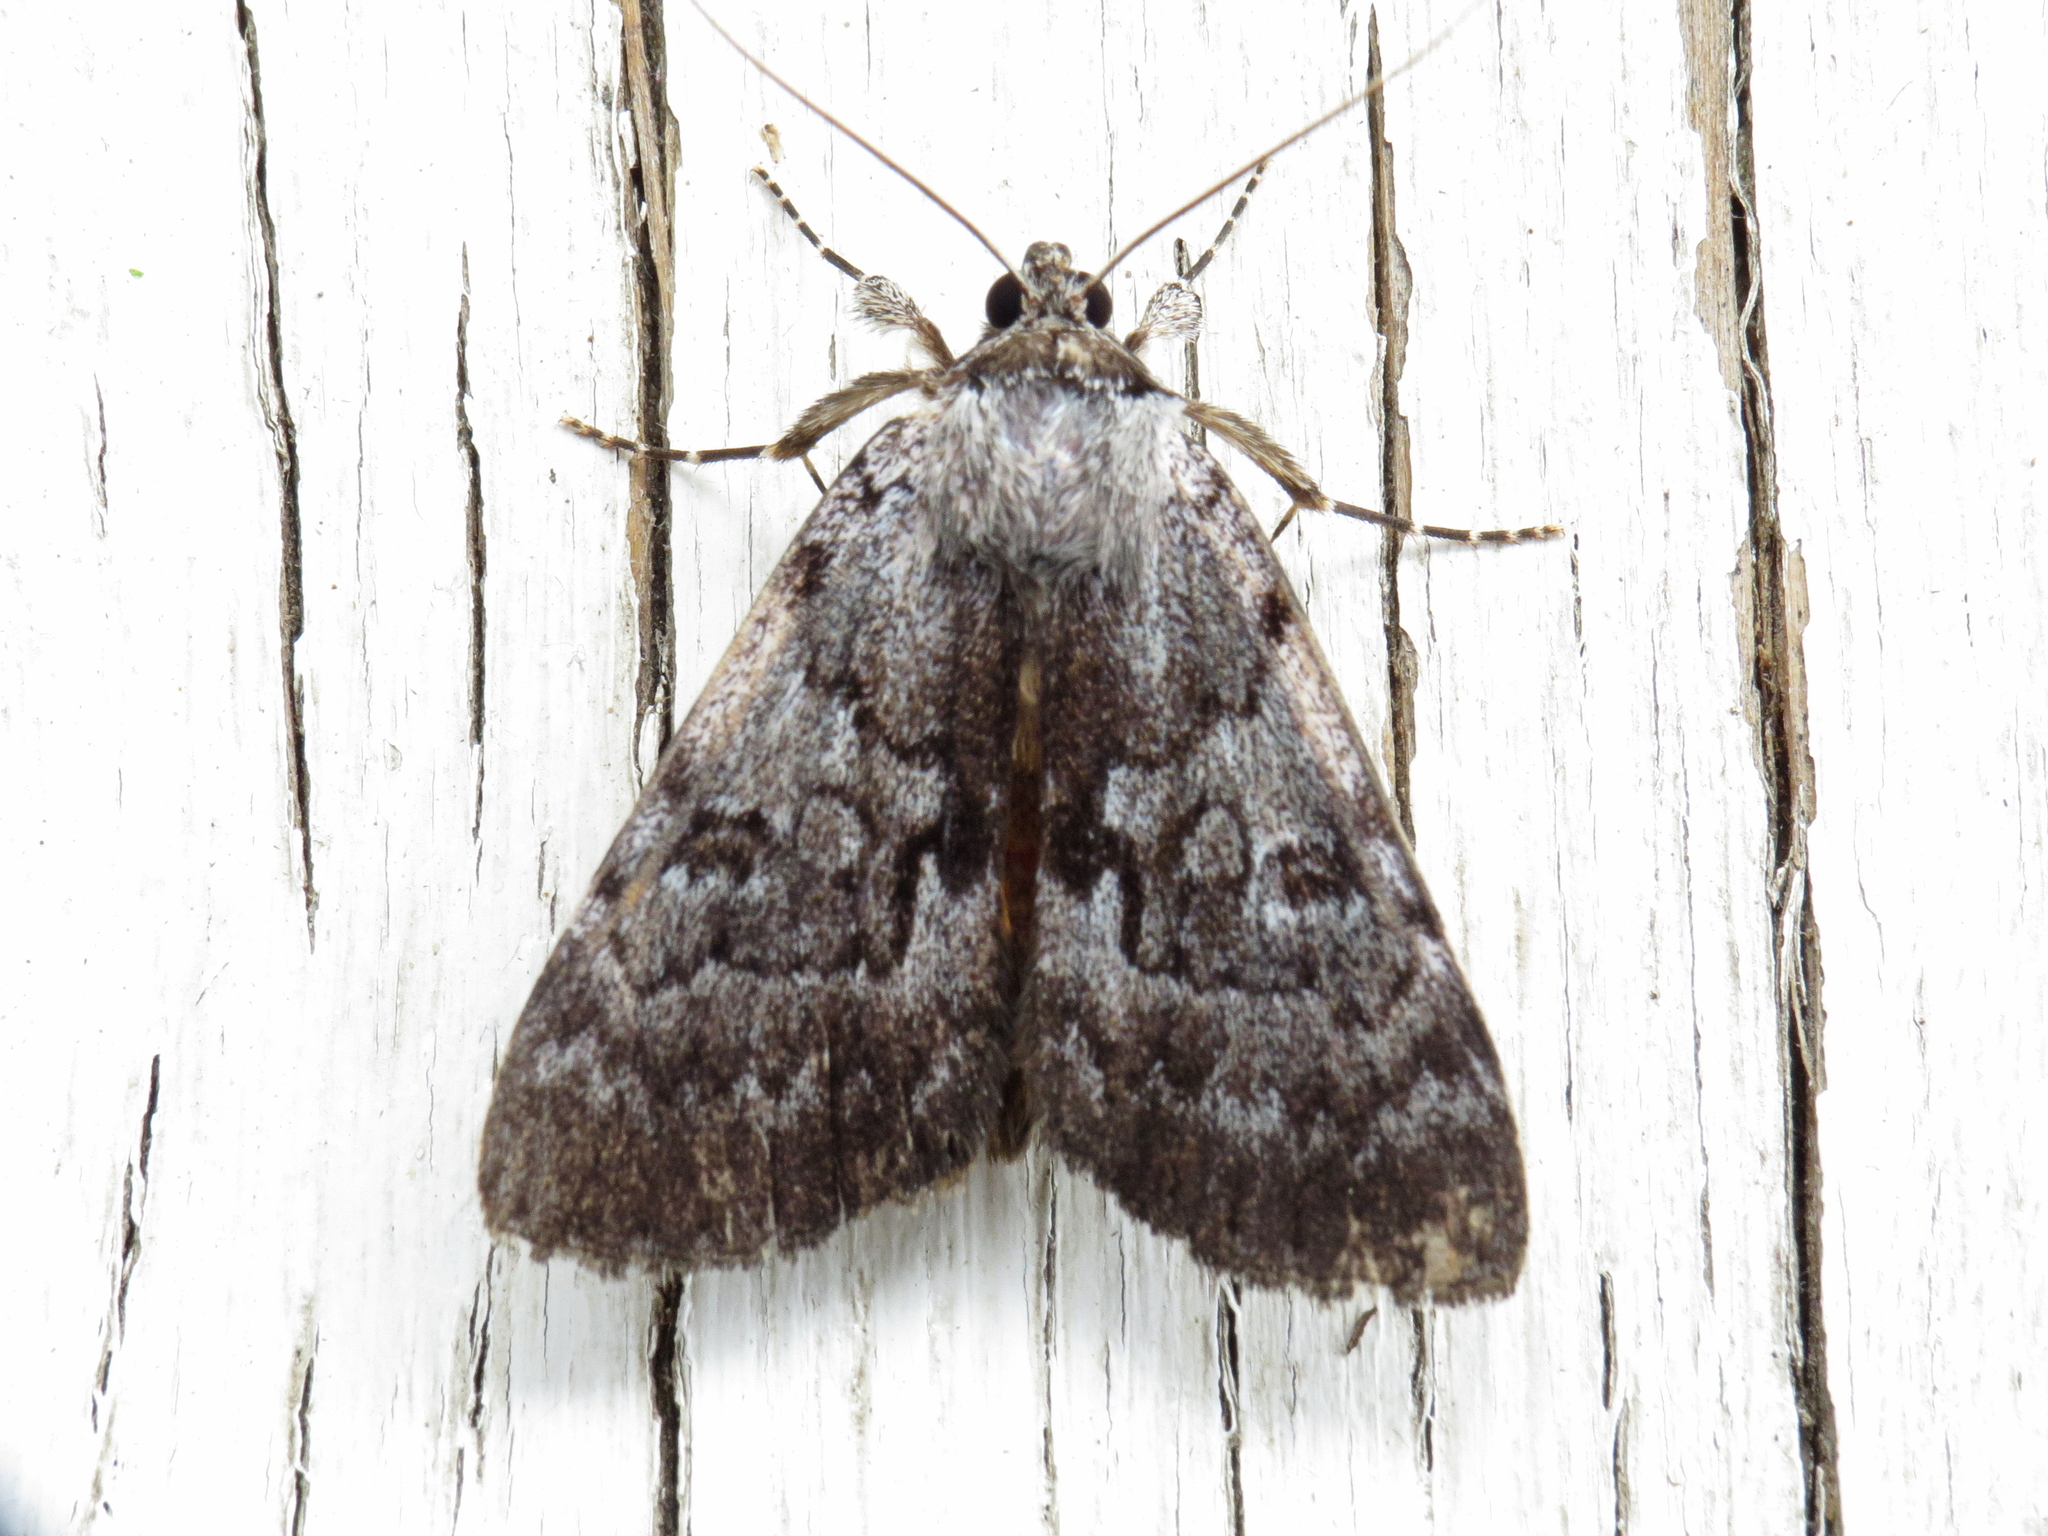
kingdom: Animalia
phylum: Arthropoda
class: Insecta
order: Lepidoptera
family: Erebidae
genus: Catocala
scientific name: Catocala sordida
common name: Sordid underwing
